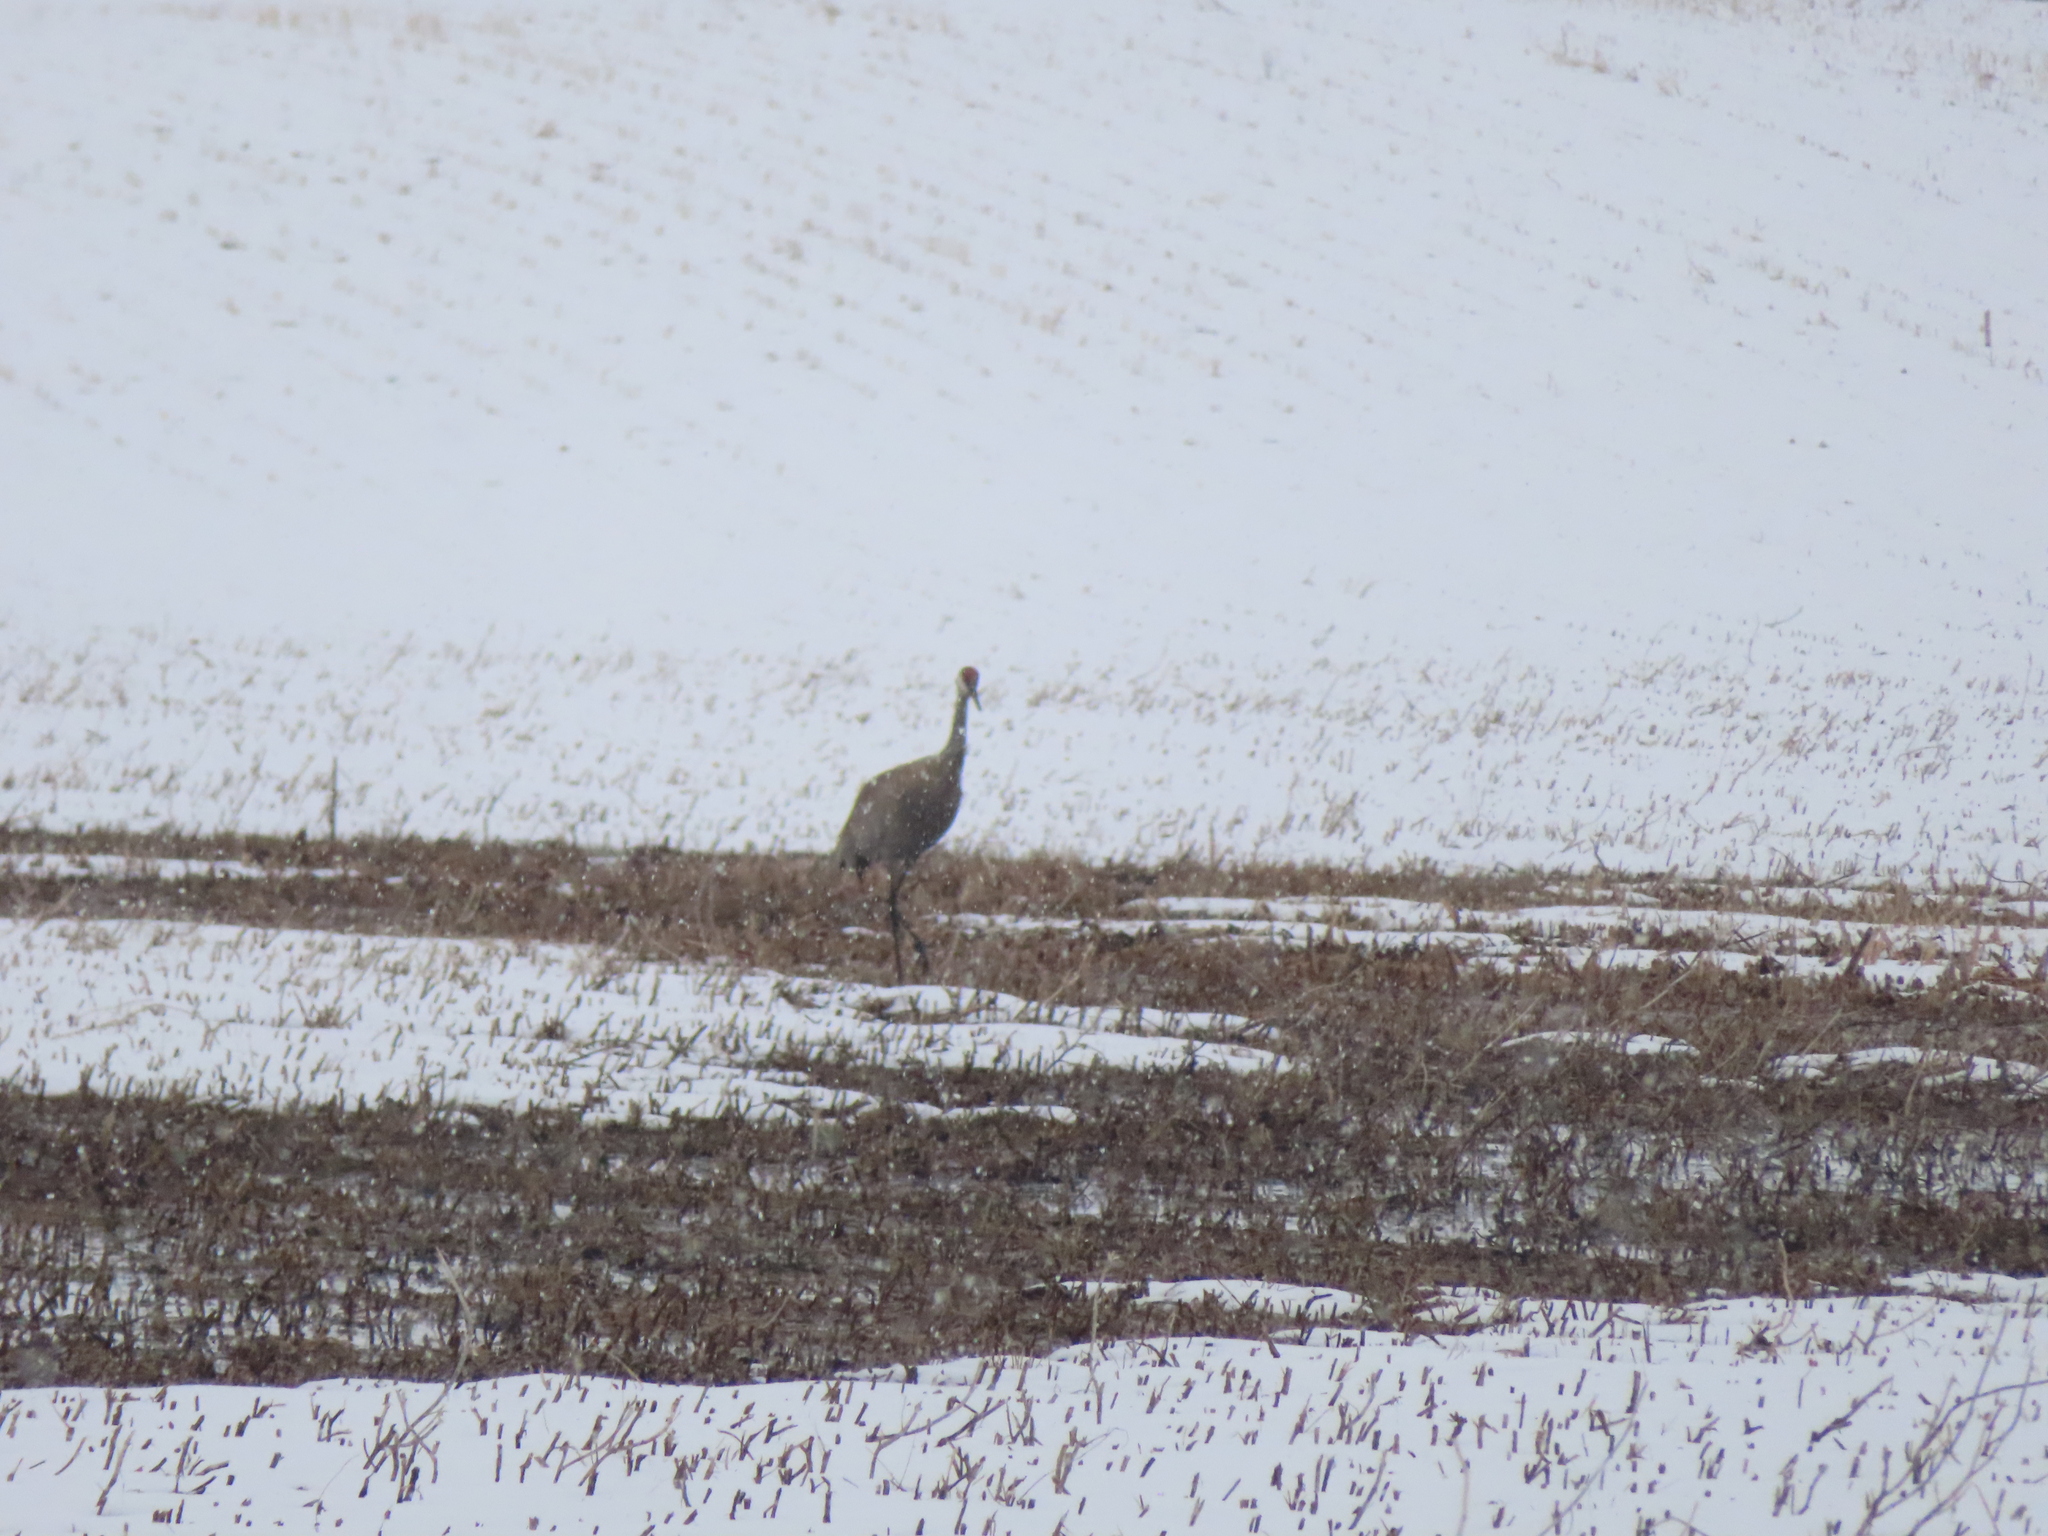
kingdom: Animalia
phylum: Chordata
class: Aves
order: Gruiformes
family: Gruidae
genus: Grus
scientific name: Grus canadensis
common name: Sandhill crane
